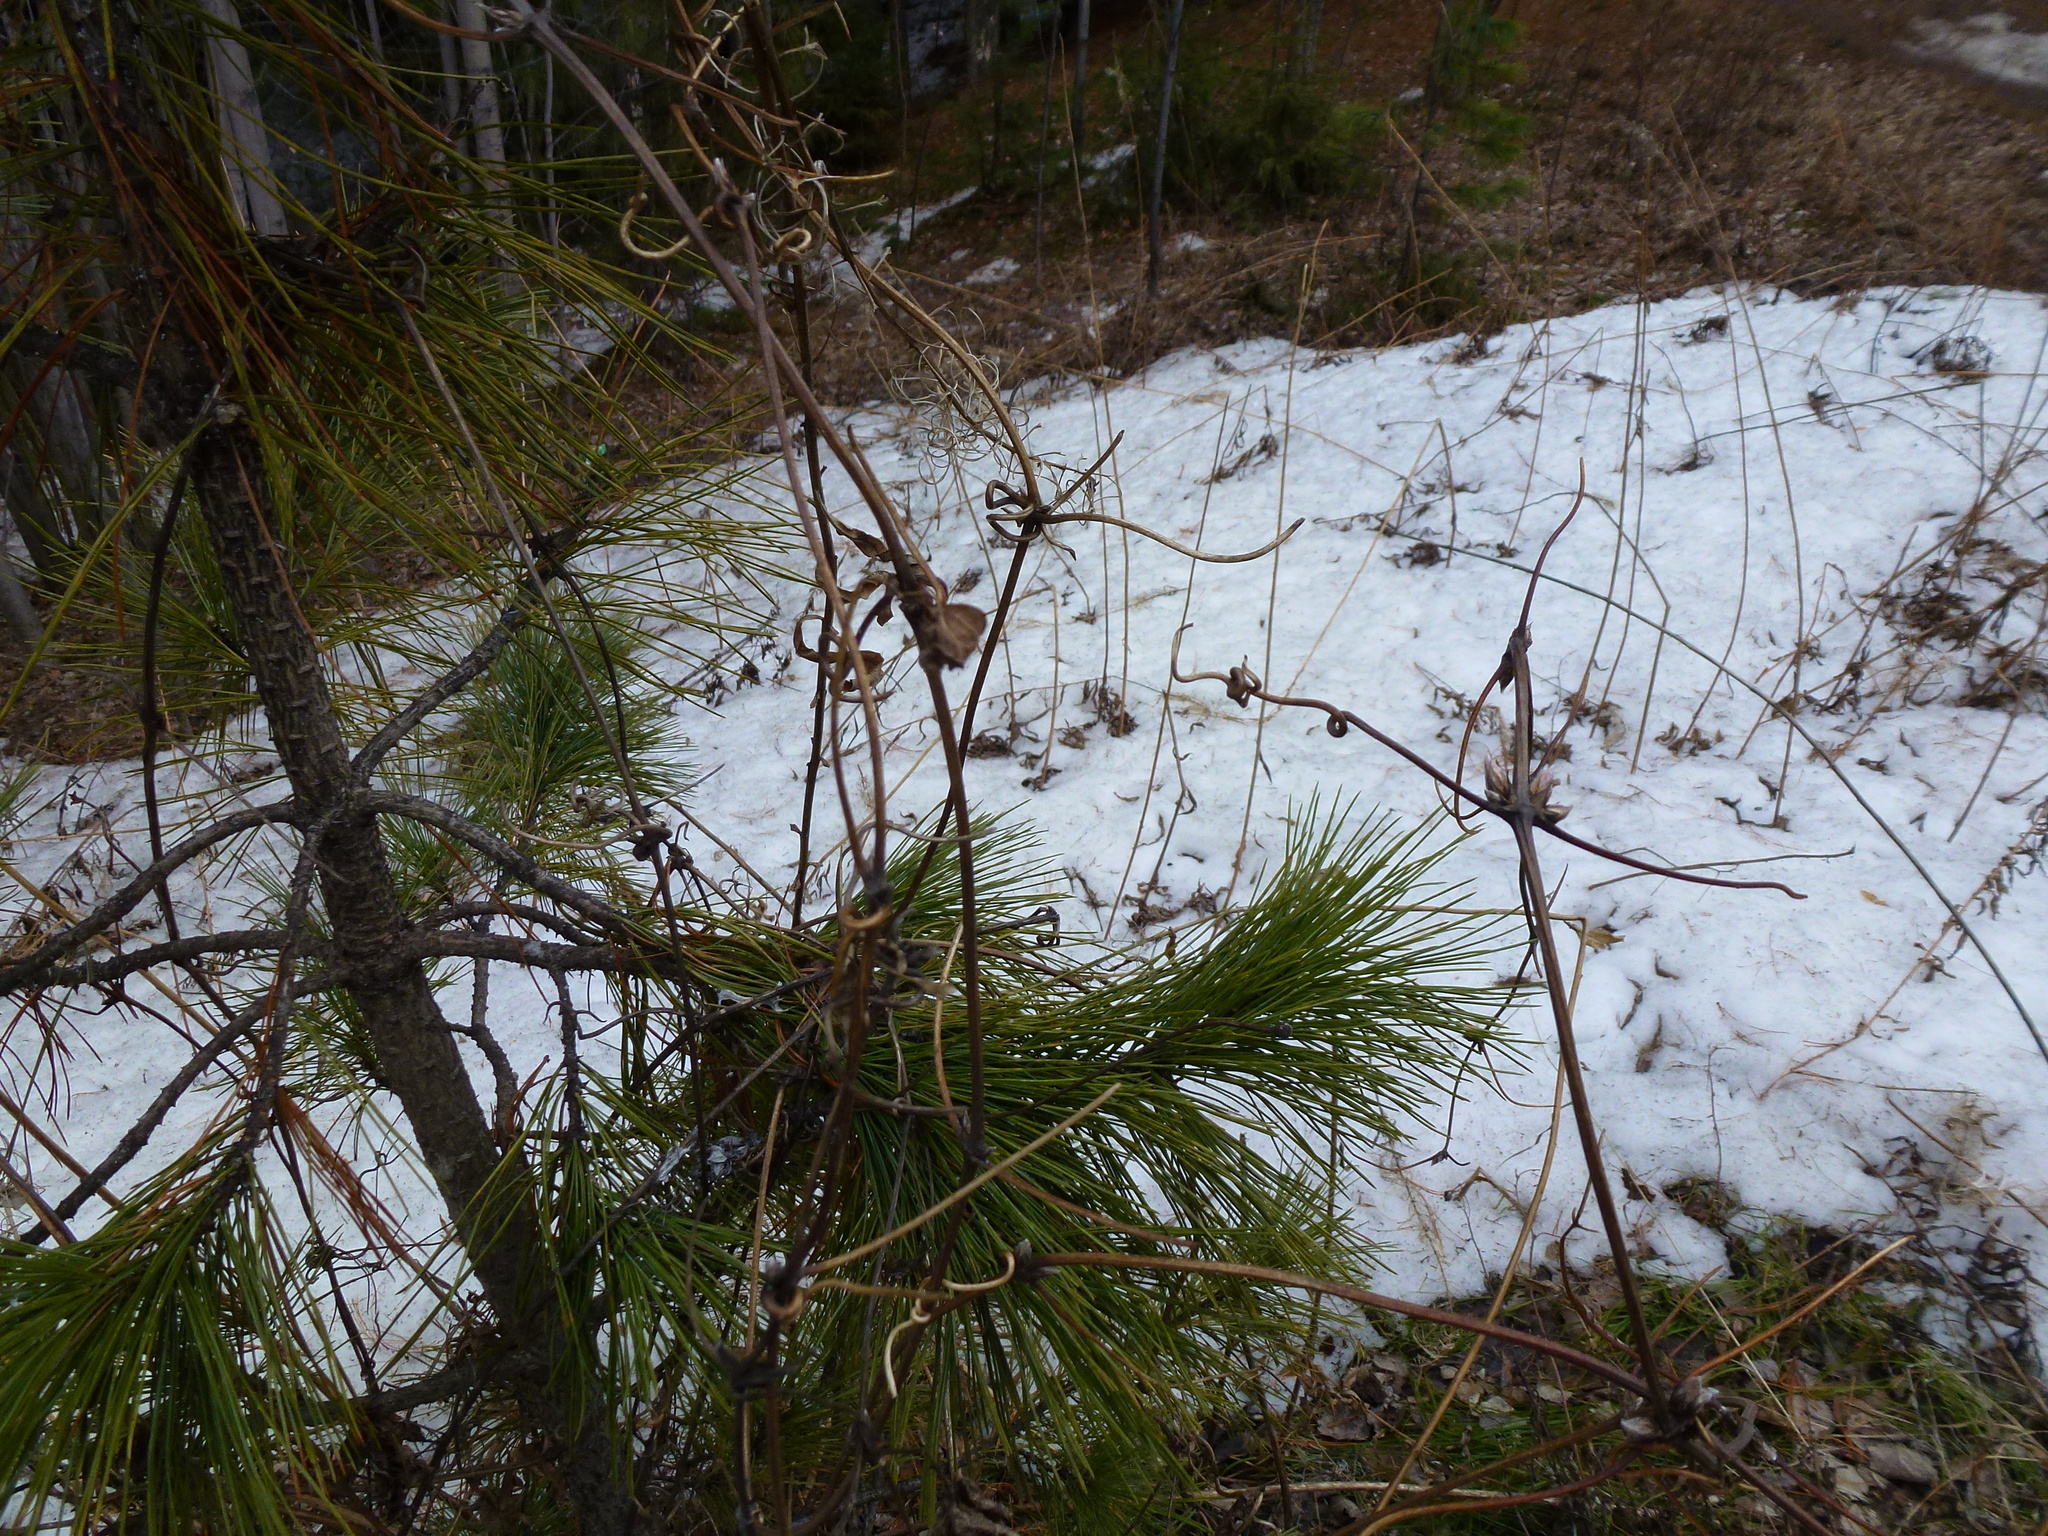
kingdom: Plantae
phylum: Tracheophyta
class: Magnoliopsida
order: Ranunculales
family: Ranunculaceae
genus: Clematis
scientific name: Clematis sibirica
